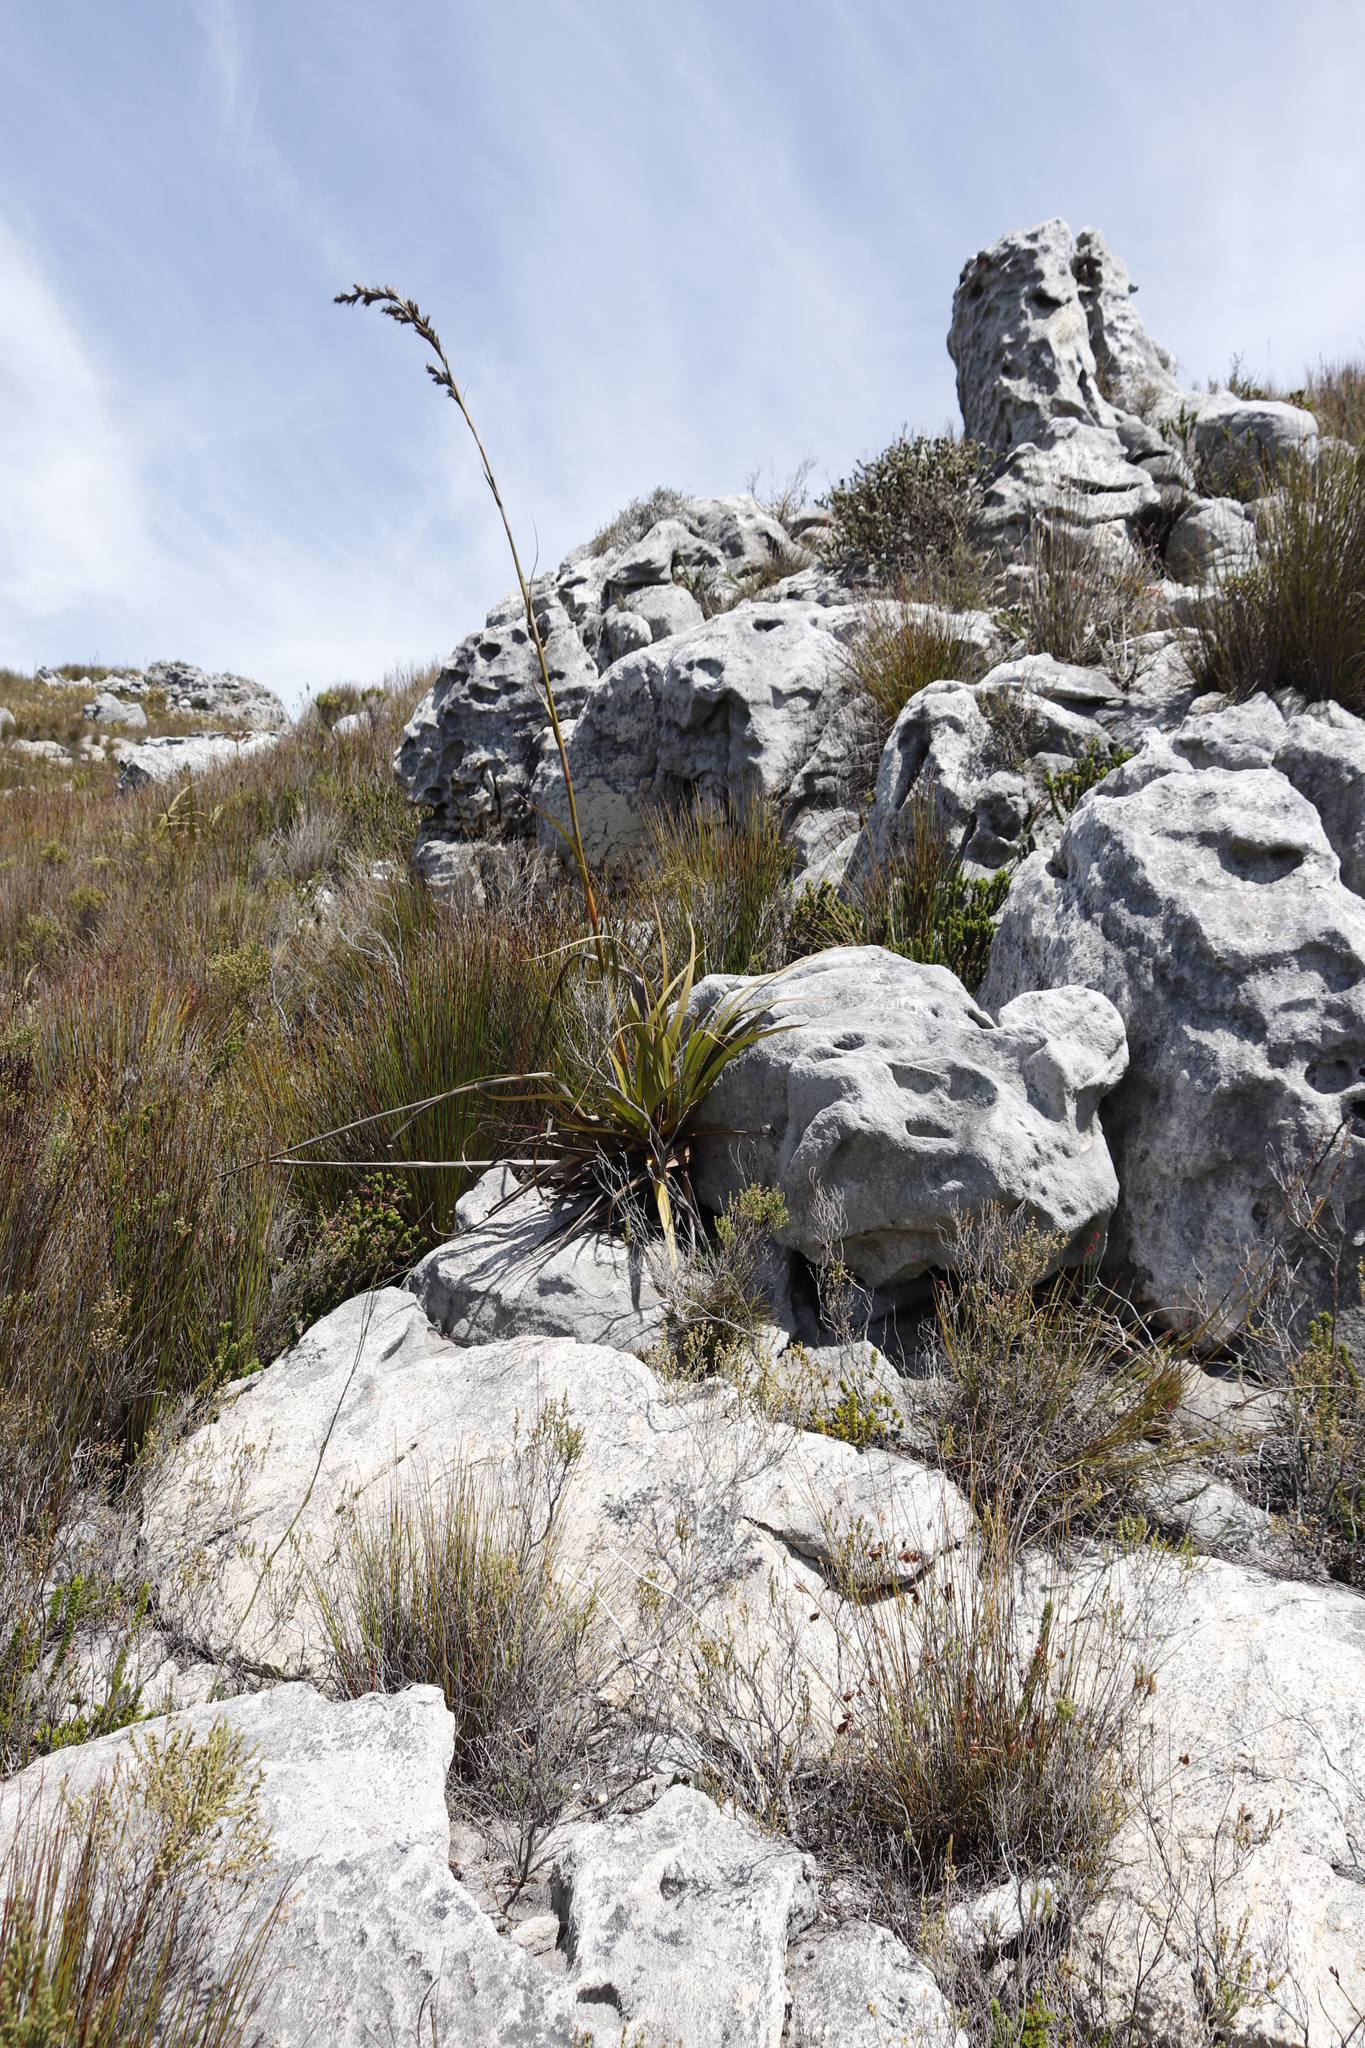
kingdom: Plantae
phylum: Tracheophyta
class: Liliopsida
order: Poales
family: Cyperaceae
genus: Tetraria
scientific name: Tetraria thermalis
